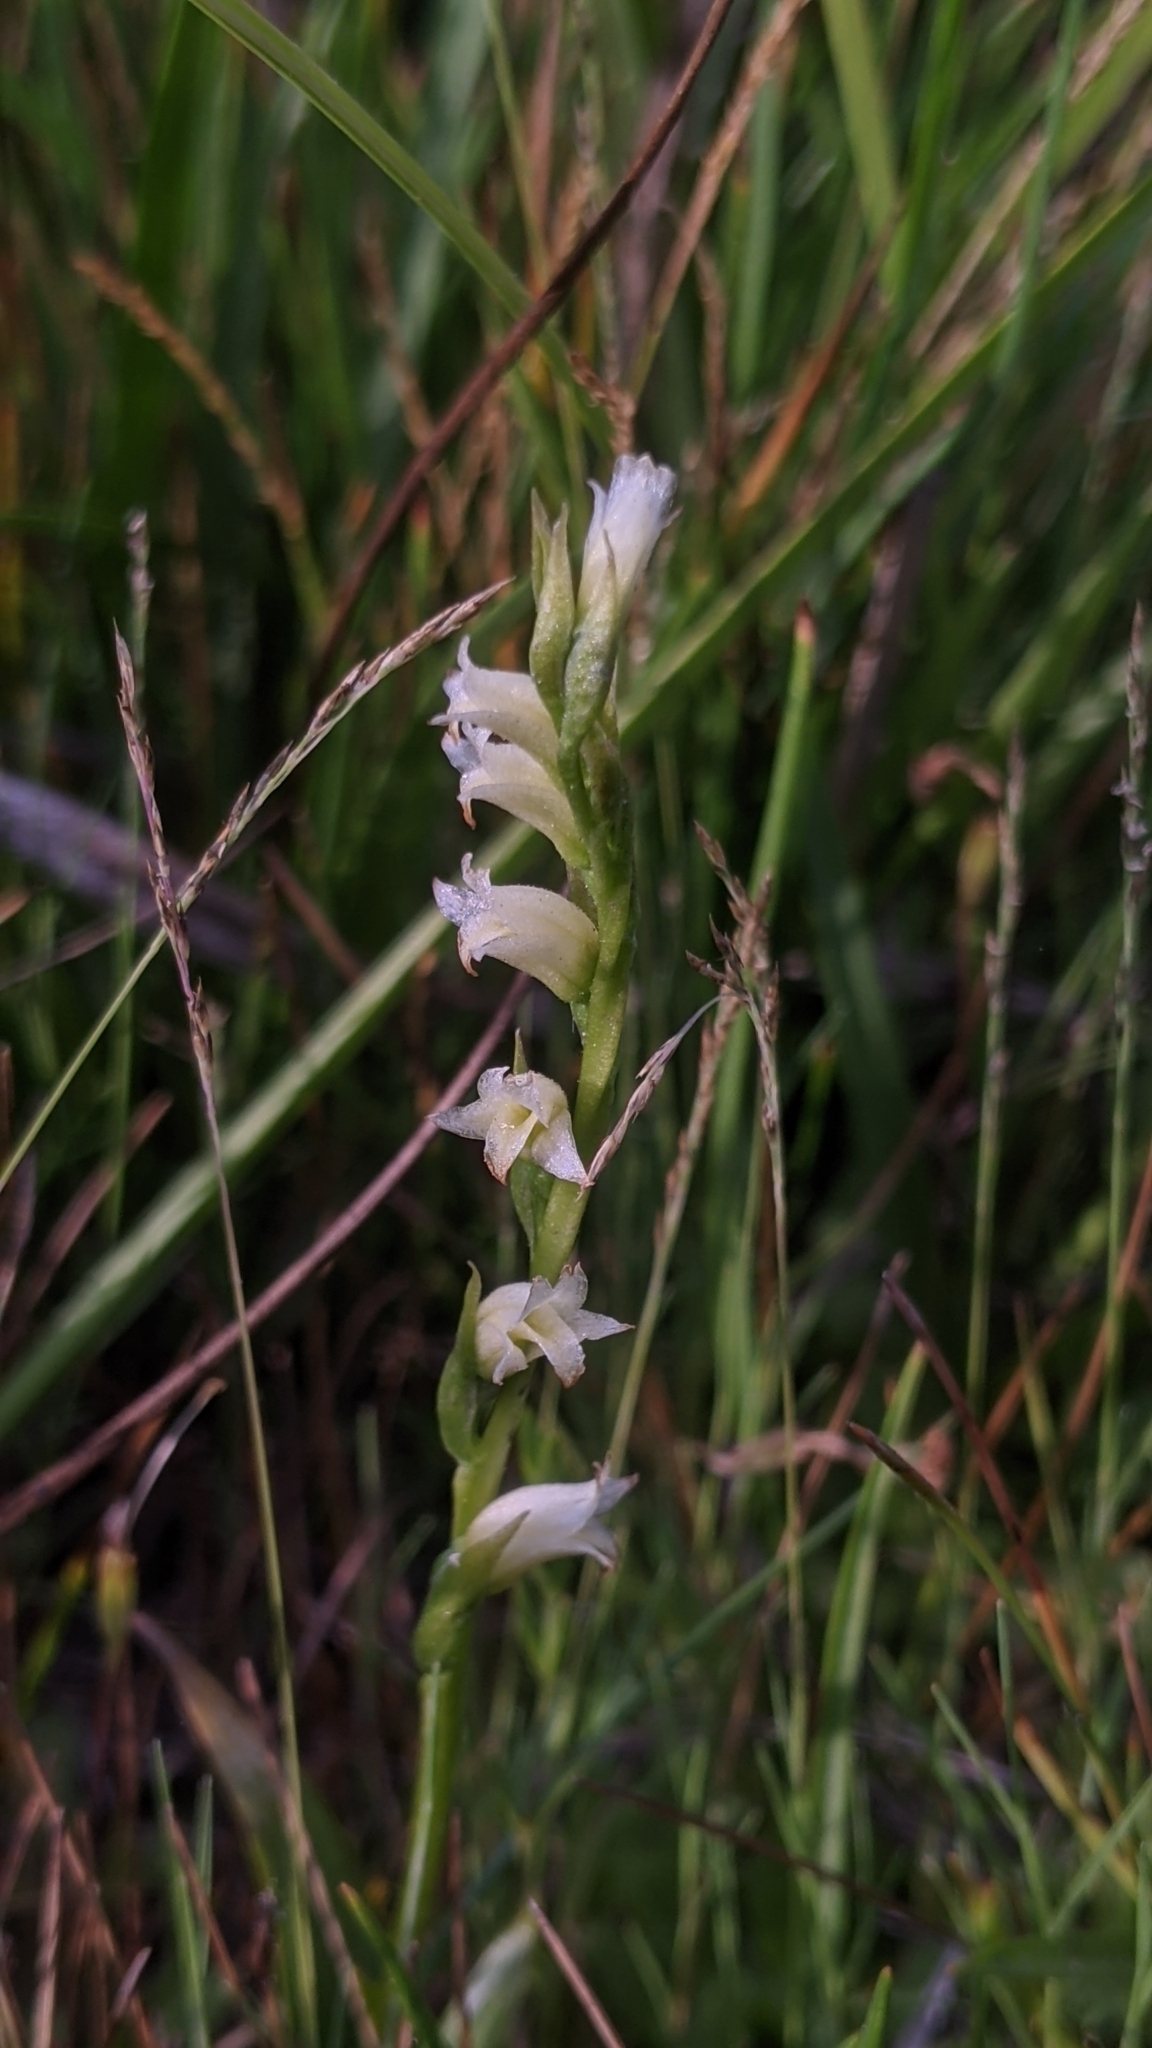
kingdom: Plantae
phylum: Tracheophyta
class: Liliopsida
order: Asparagales
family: Orchidaceae
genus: Spiranthes
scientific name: Spiranthes perexilis
